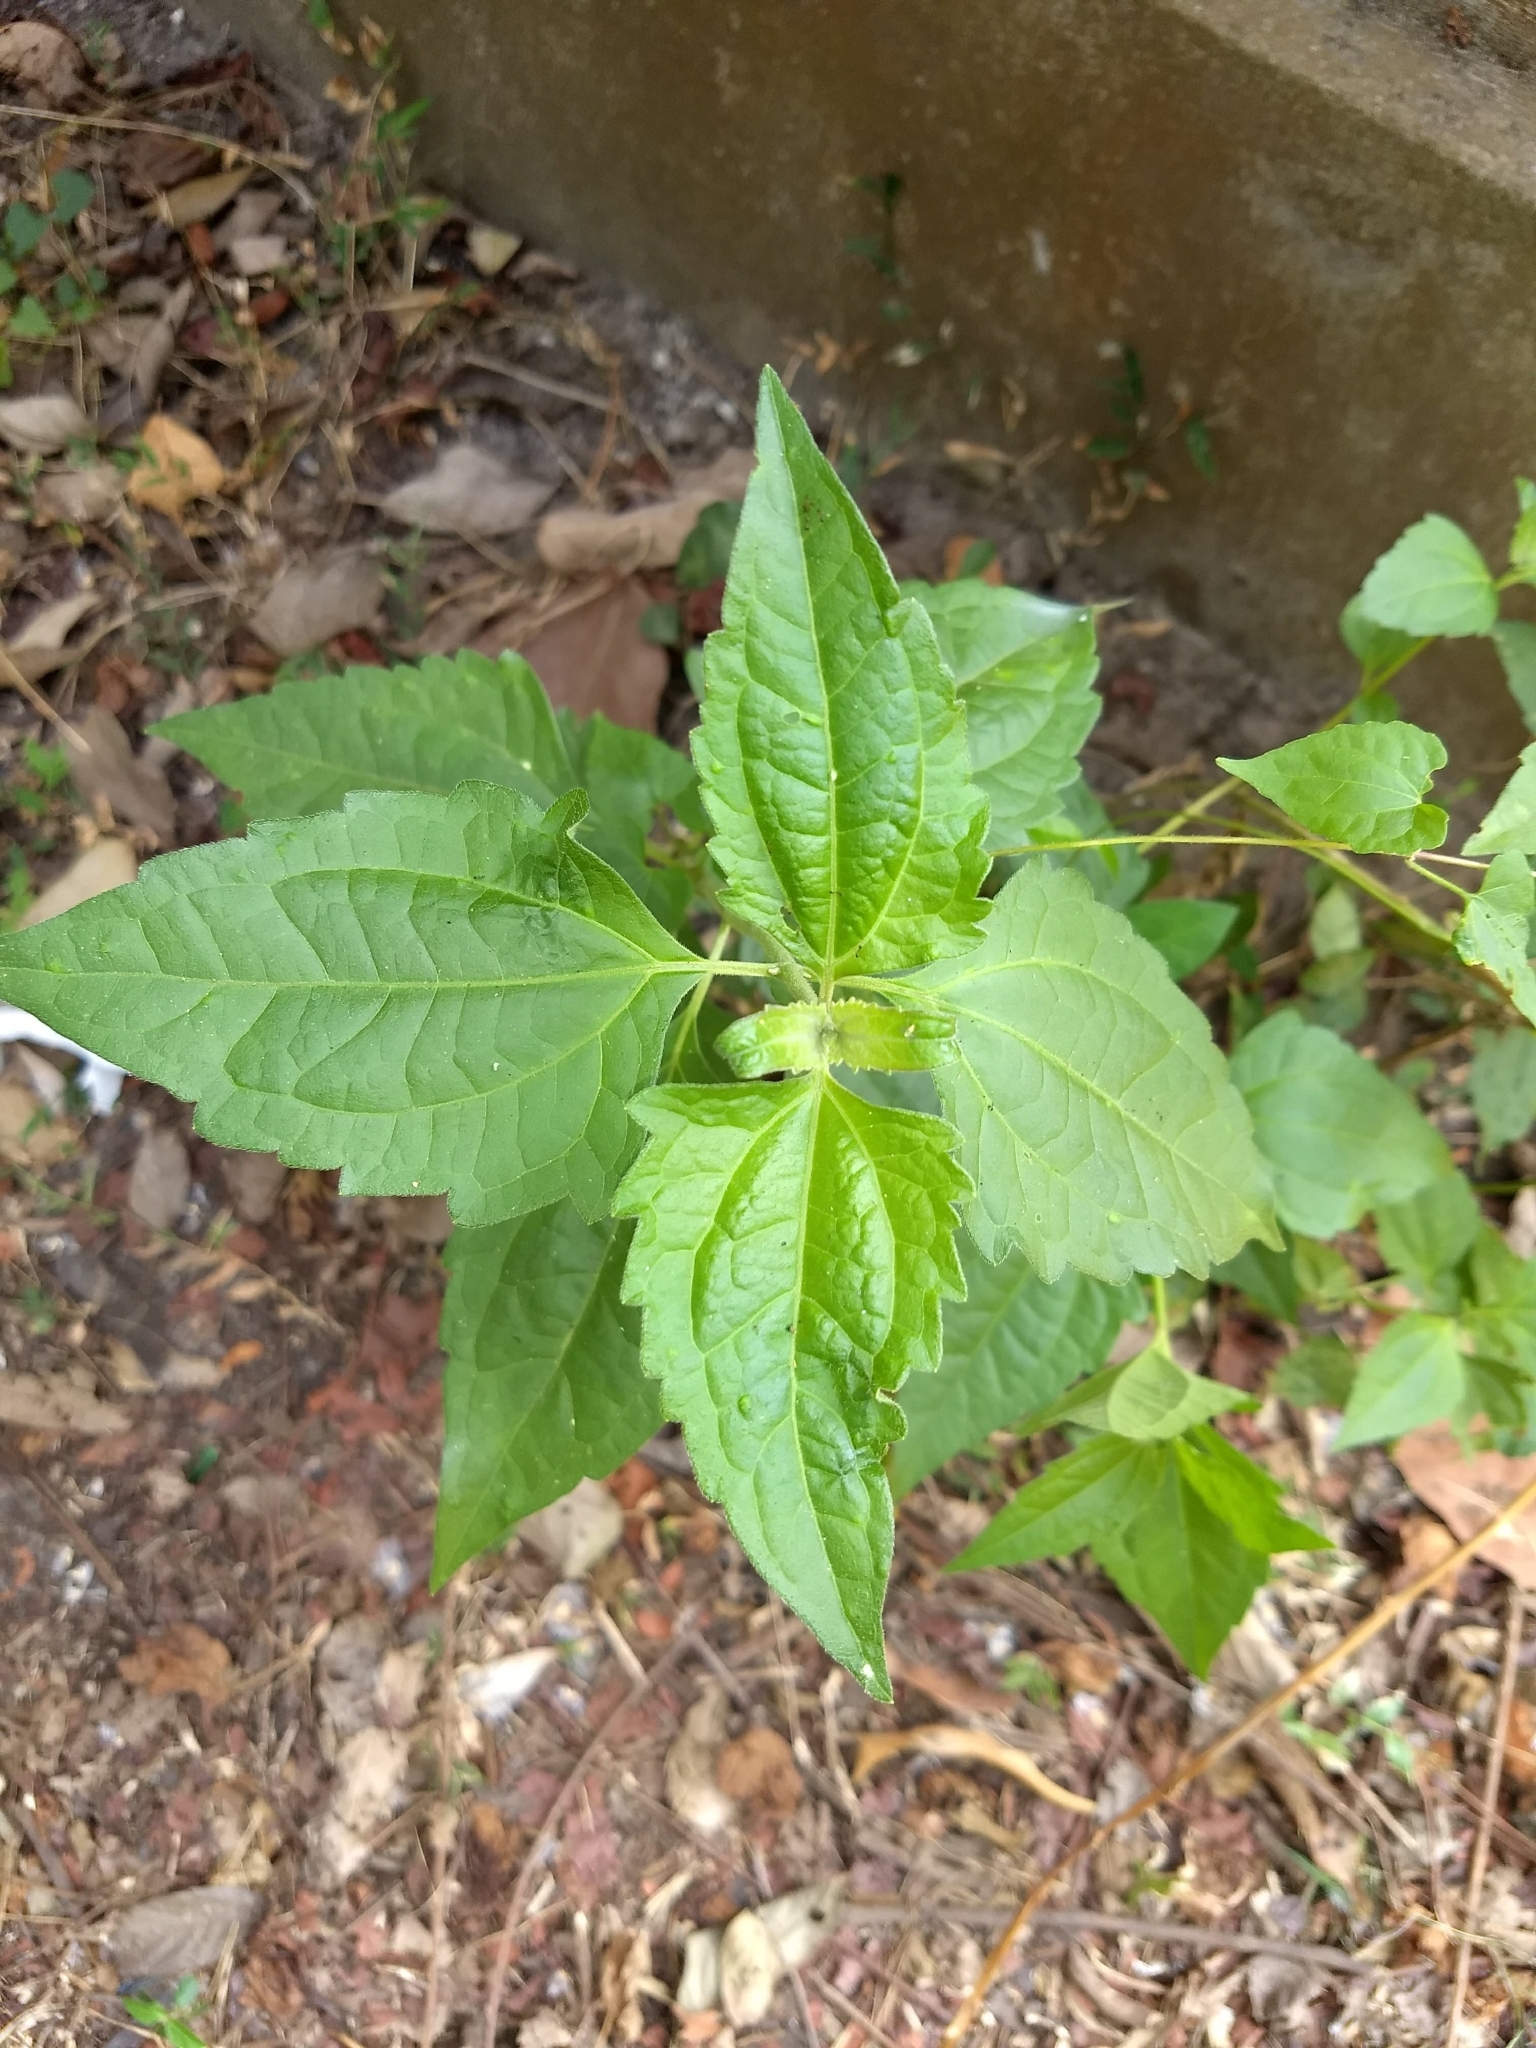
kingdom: Plantae
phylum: Tracheophyta
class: Magnoliopsida
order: Asterales
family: Asteraceae
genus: Chromolaena
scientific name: Chromolaena odorata
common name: Siamweed
